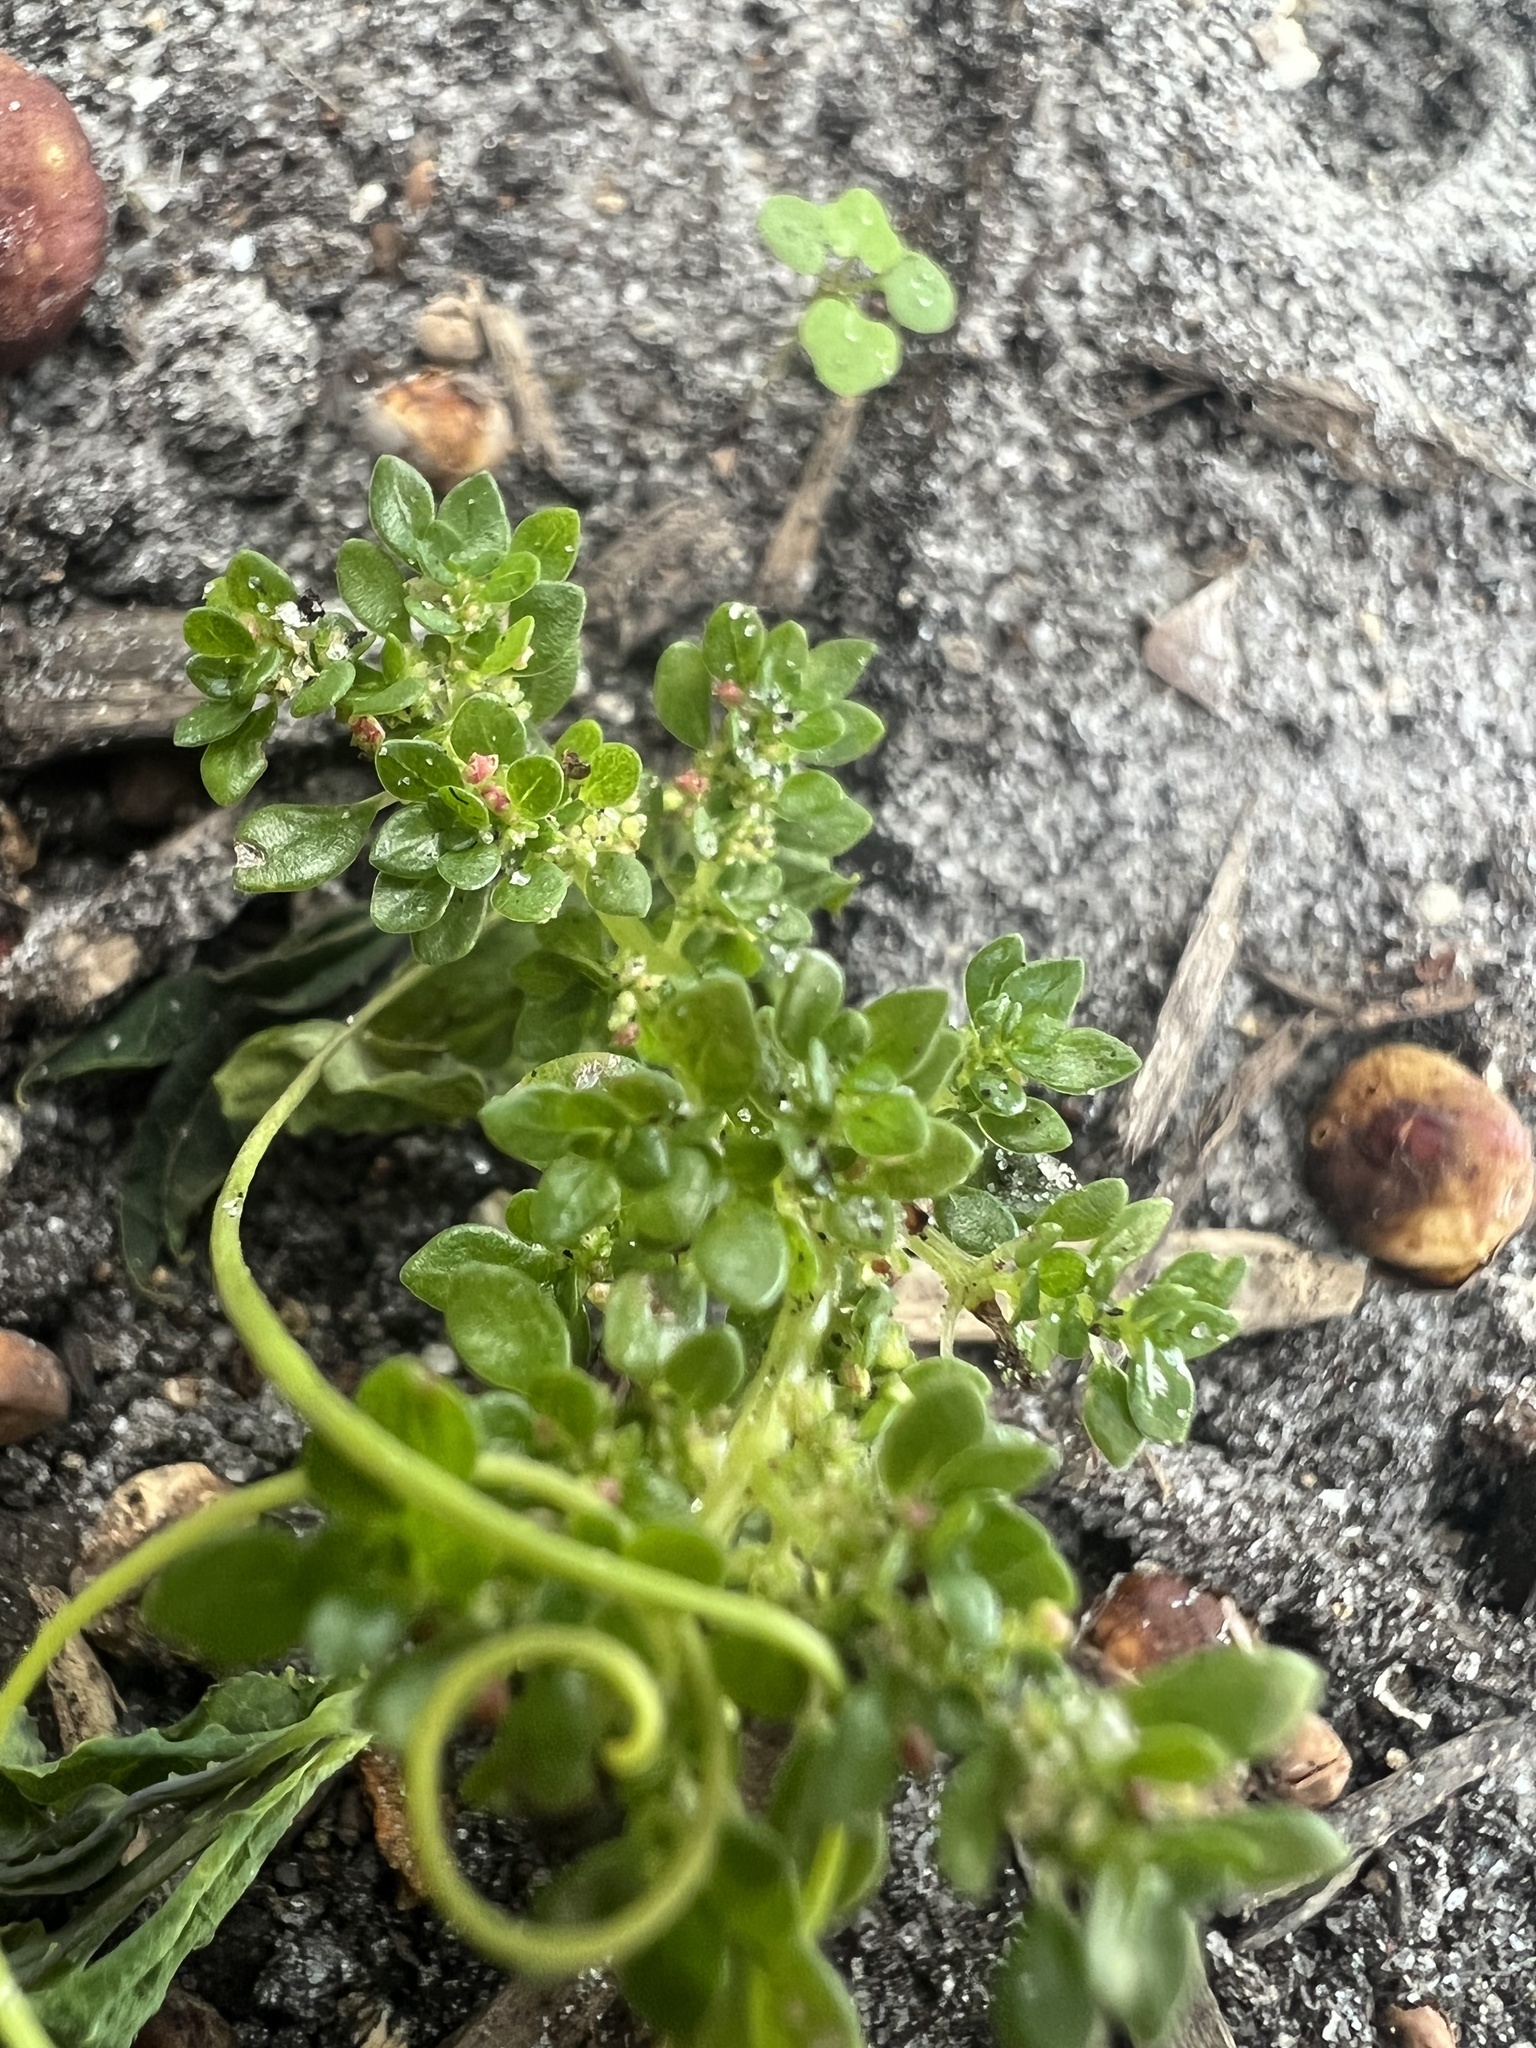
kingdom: Plantae
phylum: Tracheophyta
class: Magnoliopsida
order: Rosales
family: Urticaceae
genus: Pilea
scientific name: Pilea microphylla
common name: Artillery-plant
